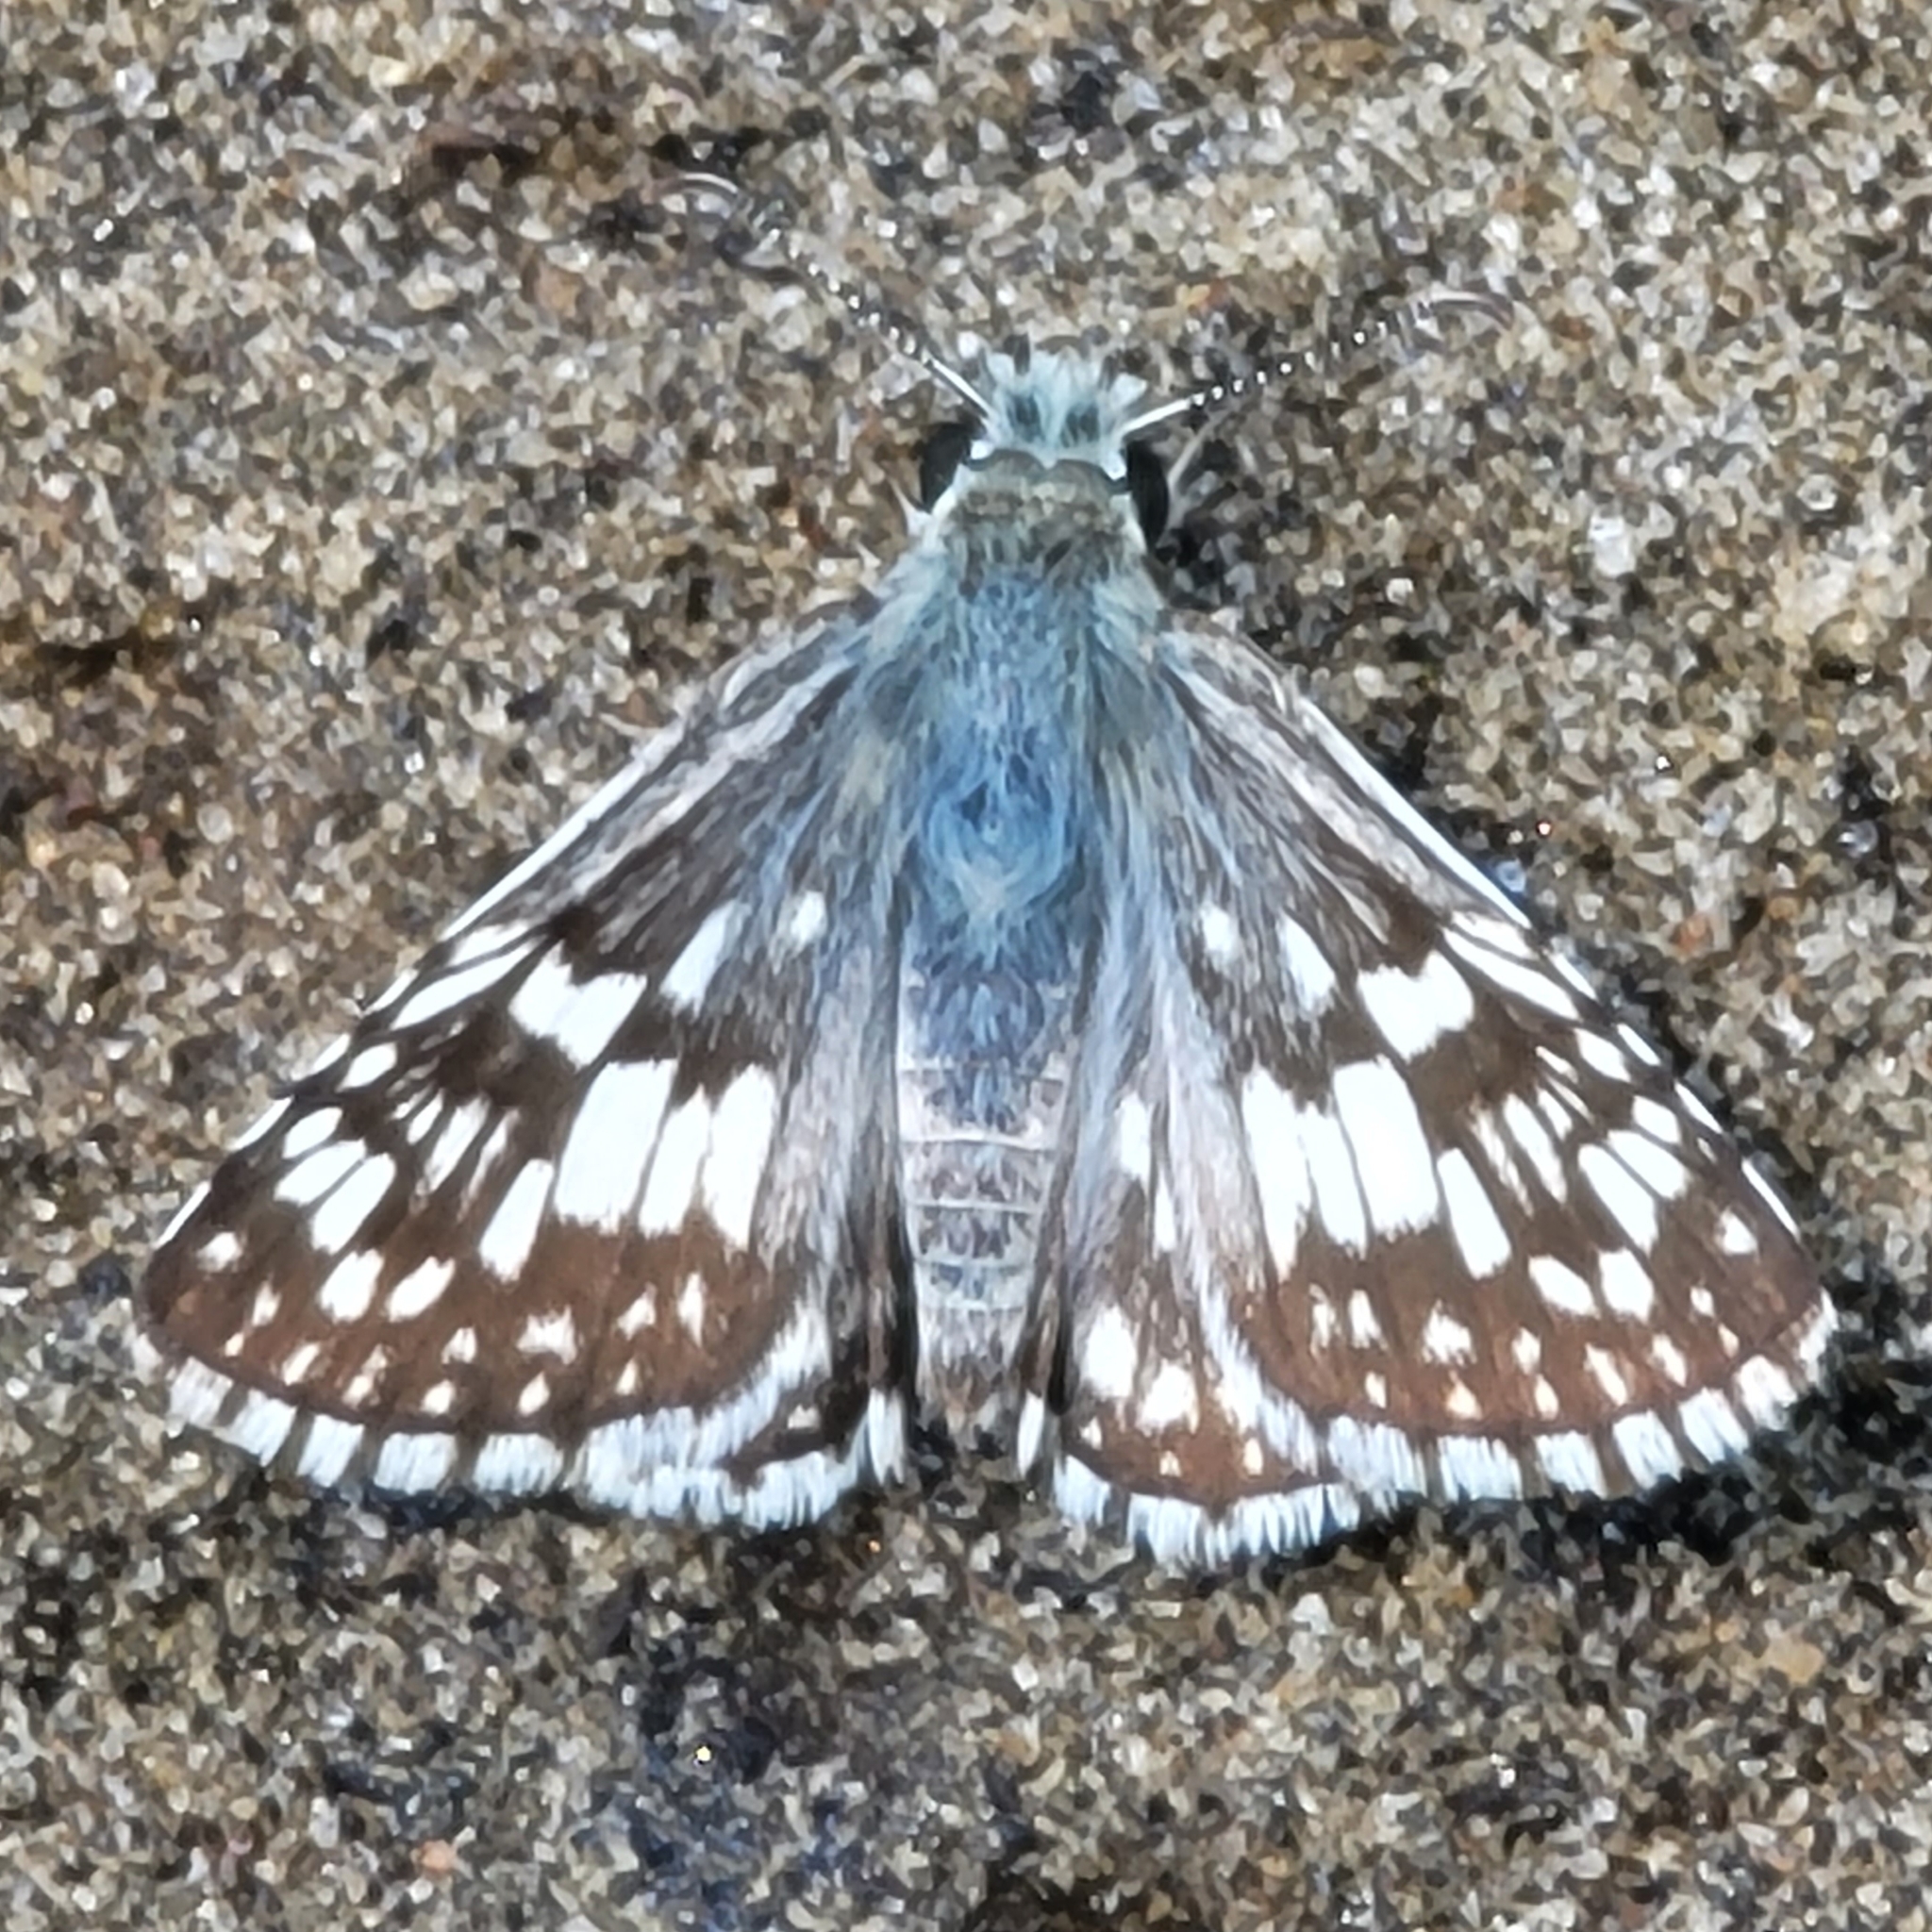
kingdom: Animalia
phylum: Arthropoda
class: Insecta
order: Lepidoptera
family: Hesperiidae
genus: Burnsius
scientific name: Burnsius communis
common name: Common checkered-skipper
